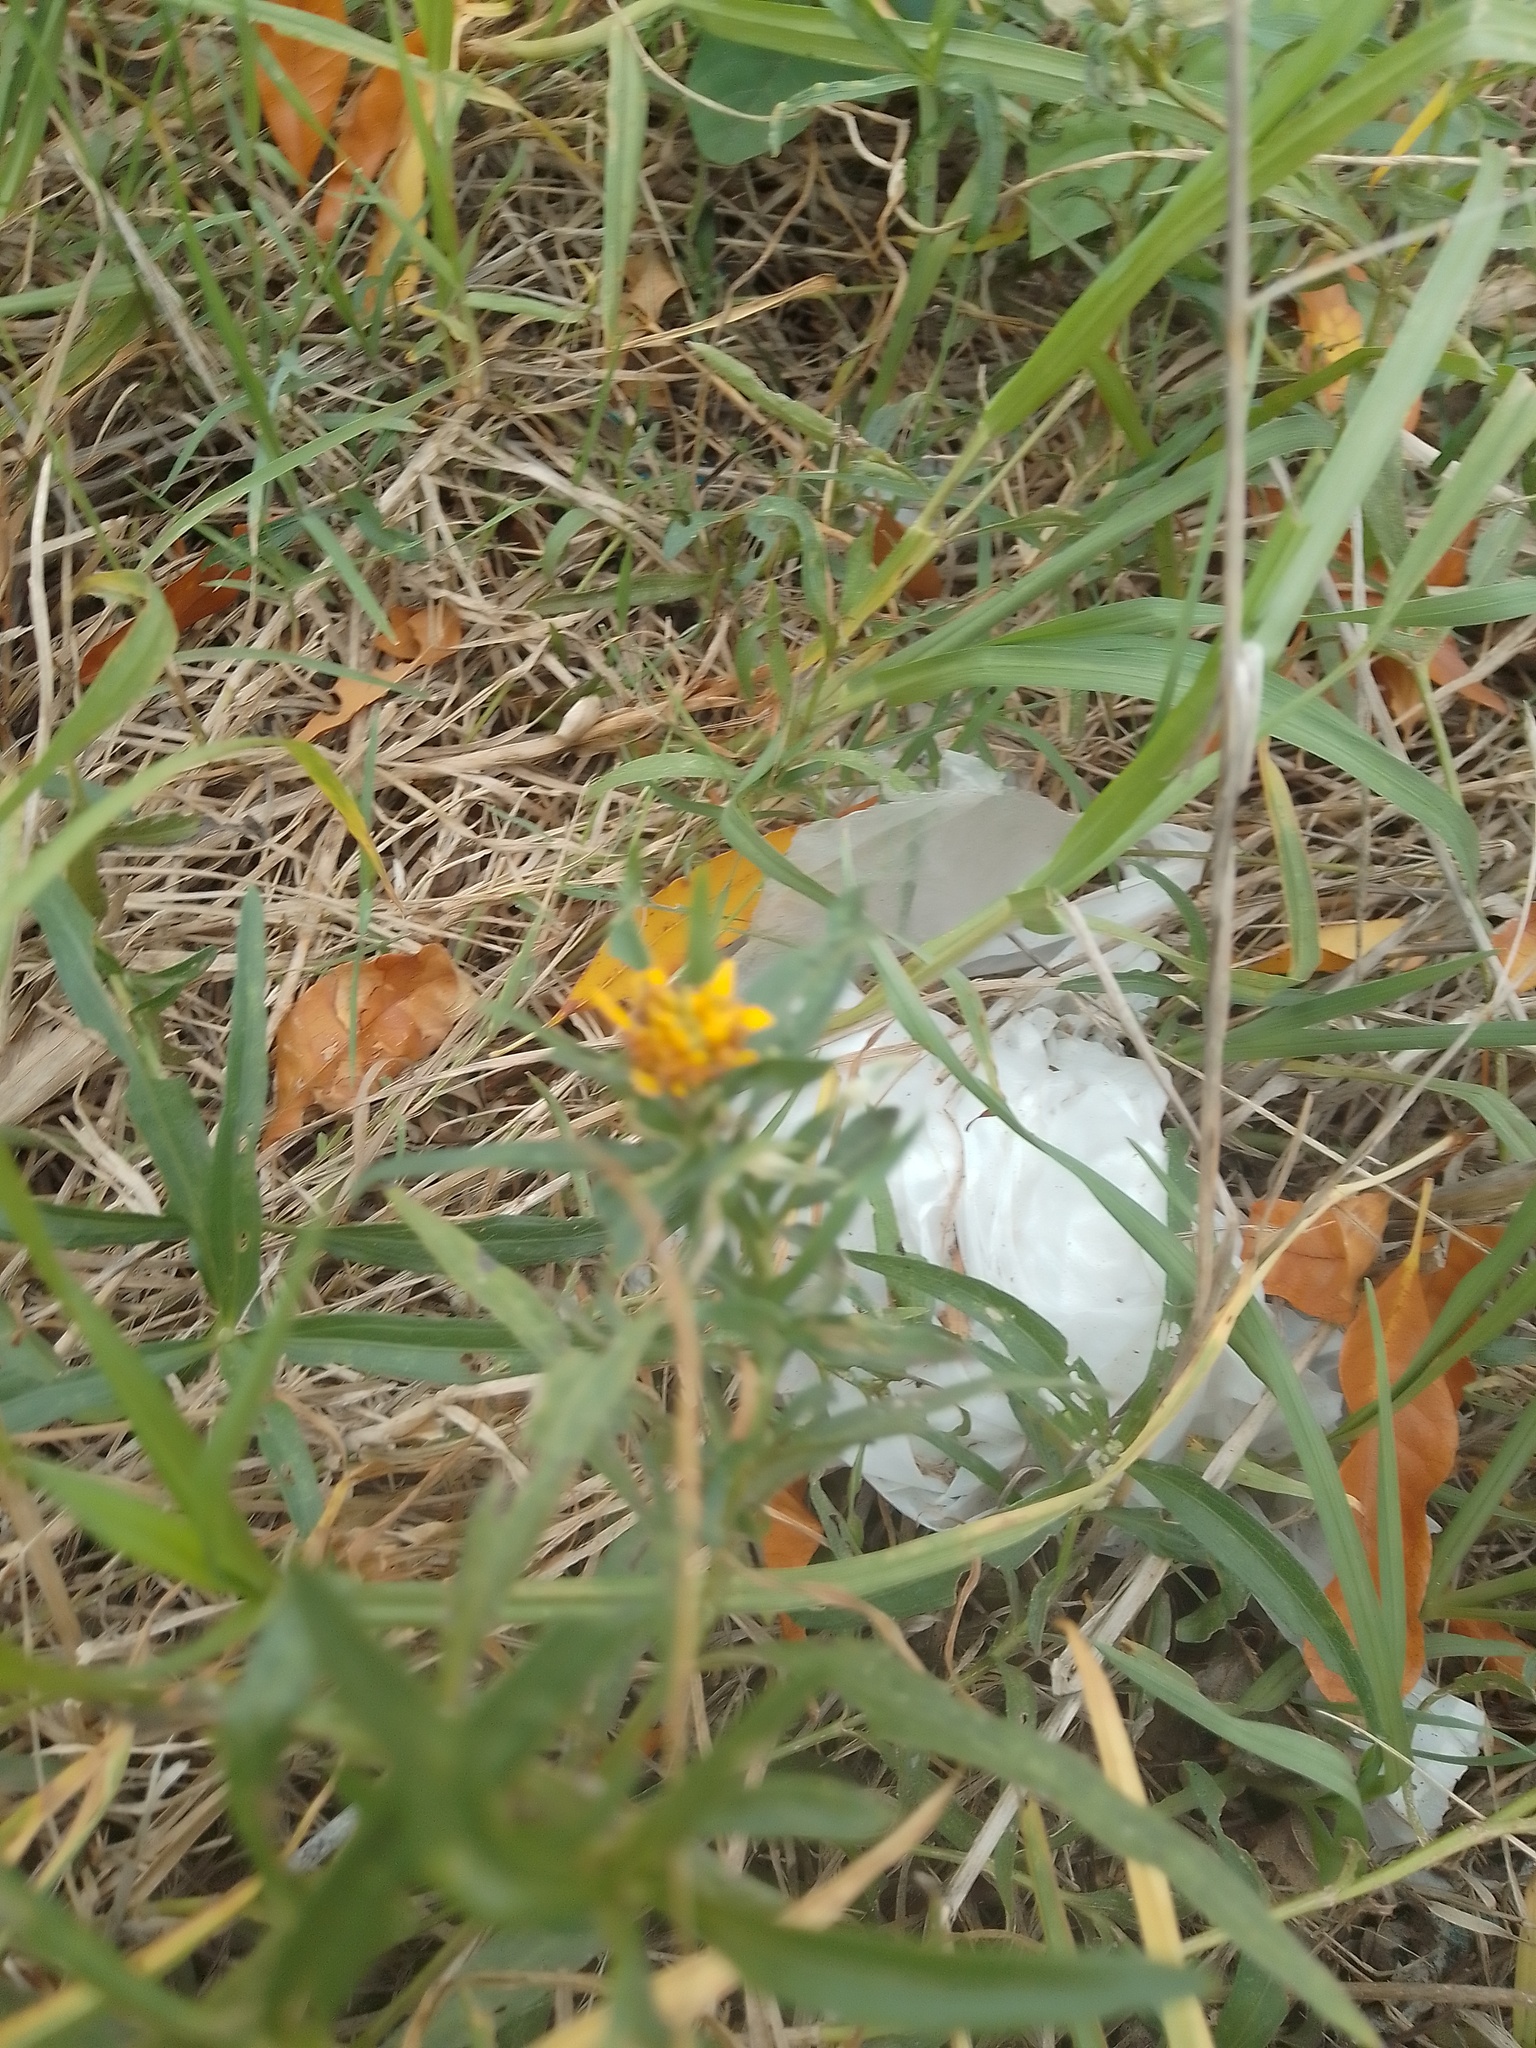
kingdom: Plantae
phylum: Tracheophyta
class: Magnoliopsida
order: Asterales
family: Asteraceae
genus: Pascalia
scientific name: Pascalia glauca
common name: Beach creeping oxeye
